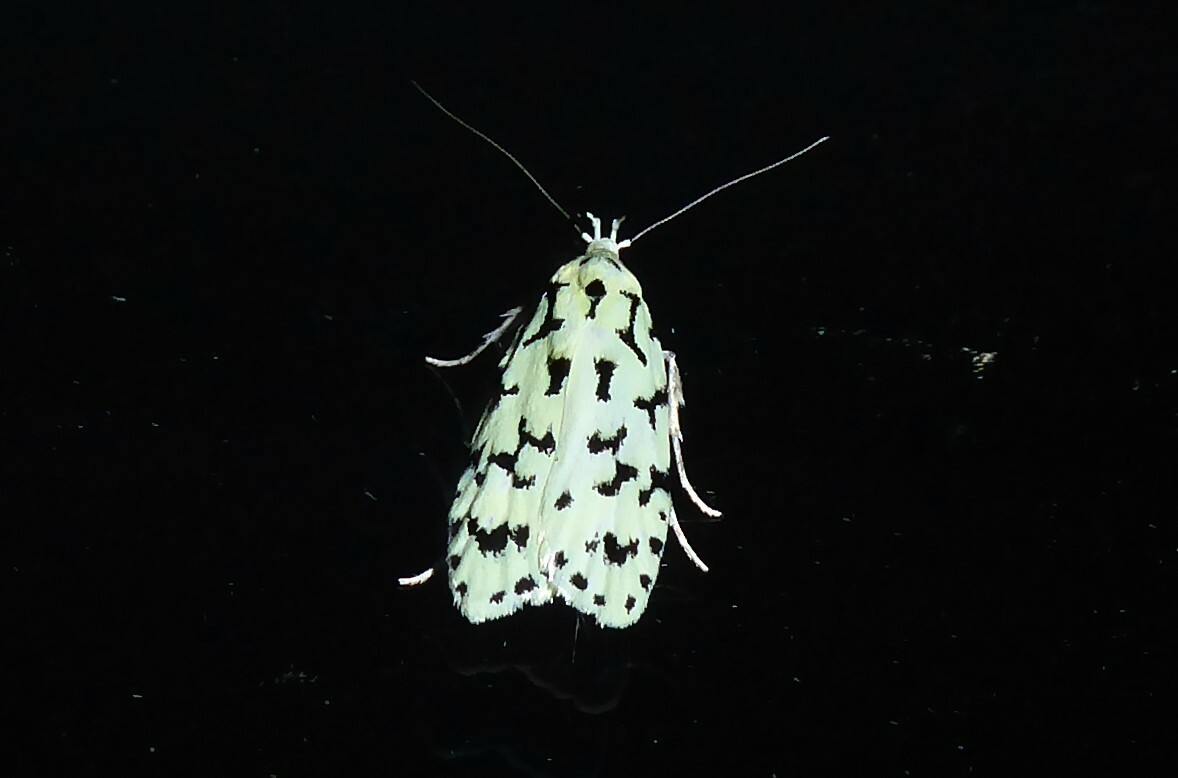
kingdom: Animalia
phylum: Arthropoda
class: Insecta
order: Lepidoptera
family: Oecophoridae
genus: Izatha
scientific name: Izatha huttoni
